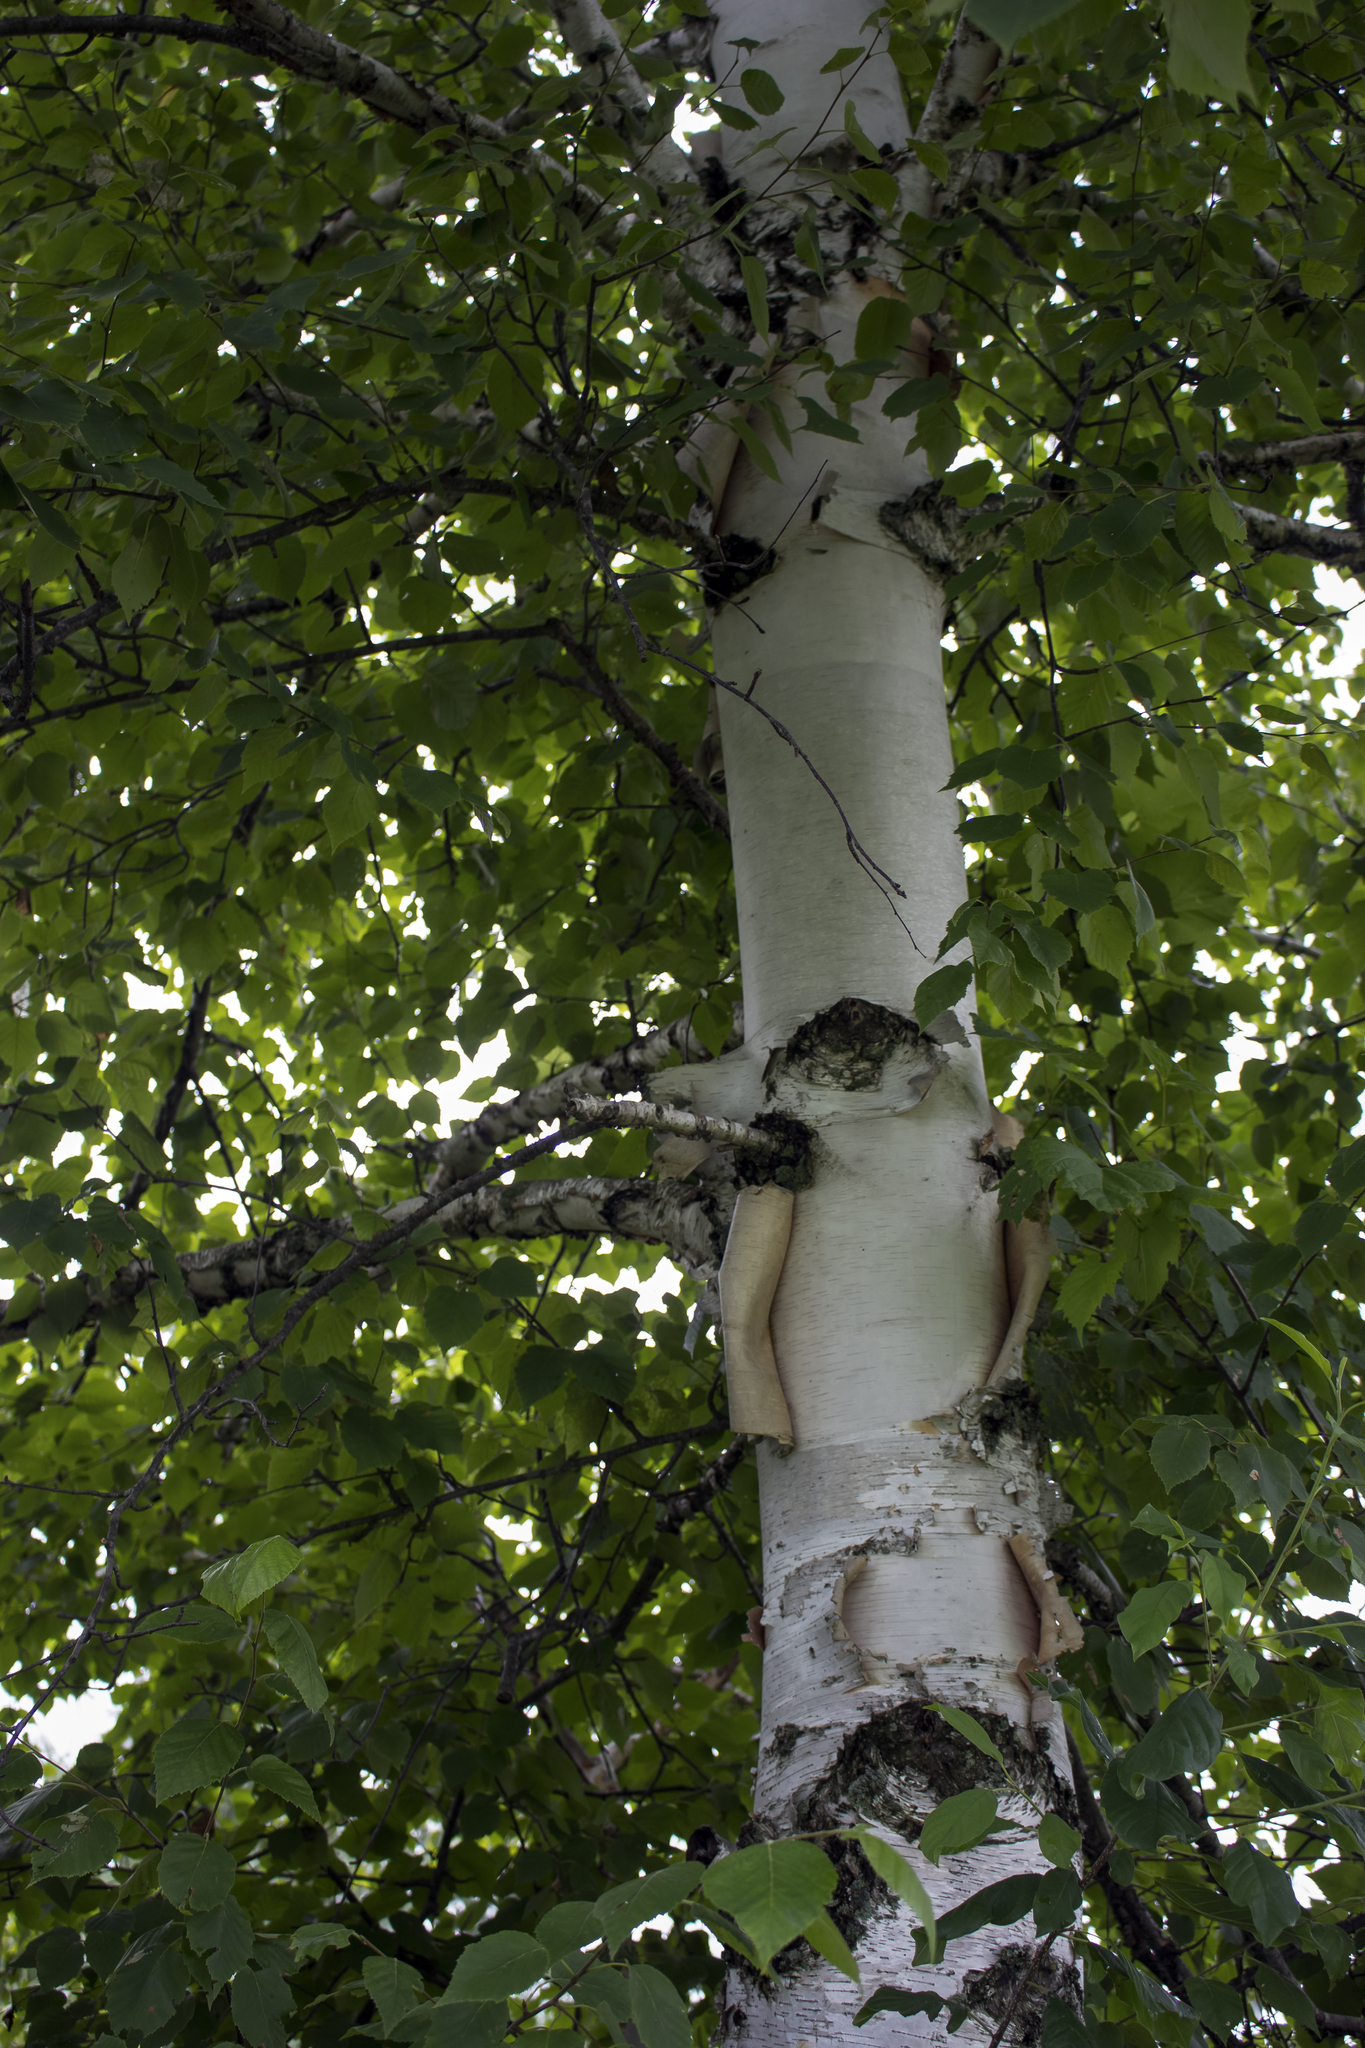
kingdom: Plantae
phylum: Tracheophyta
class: Magnoliopsida
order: Fagales
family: Betulaceae
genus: Betula
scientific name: Betula papyrifera
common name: Paper birch
